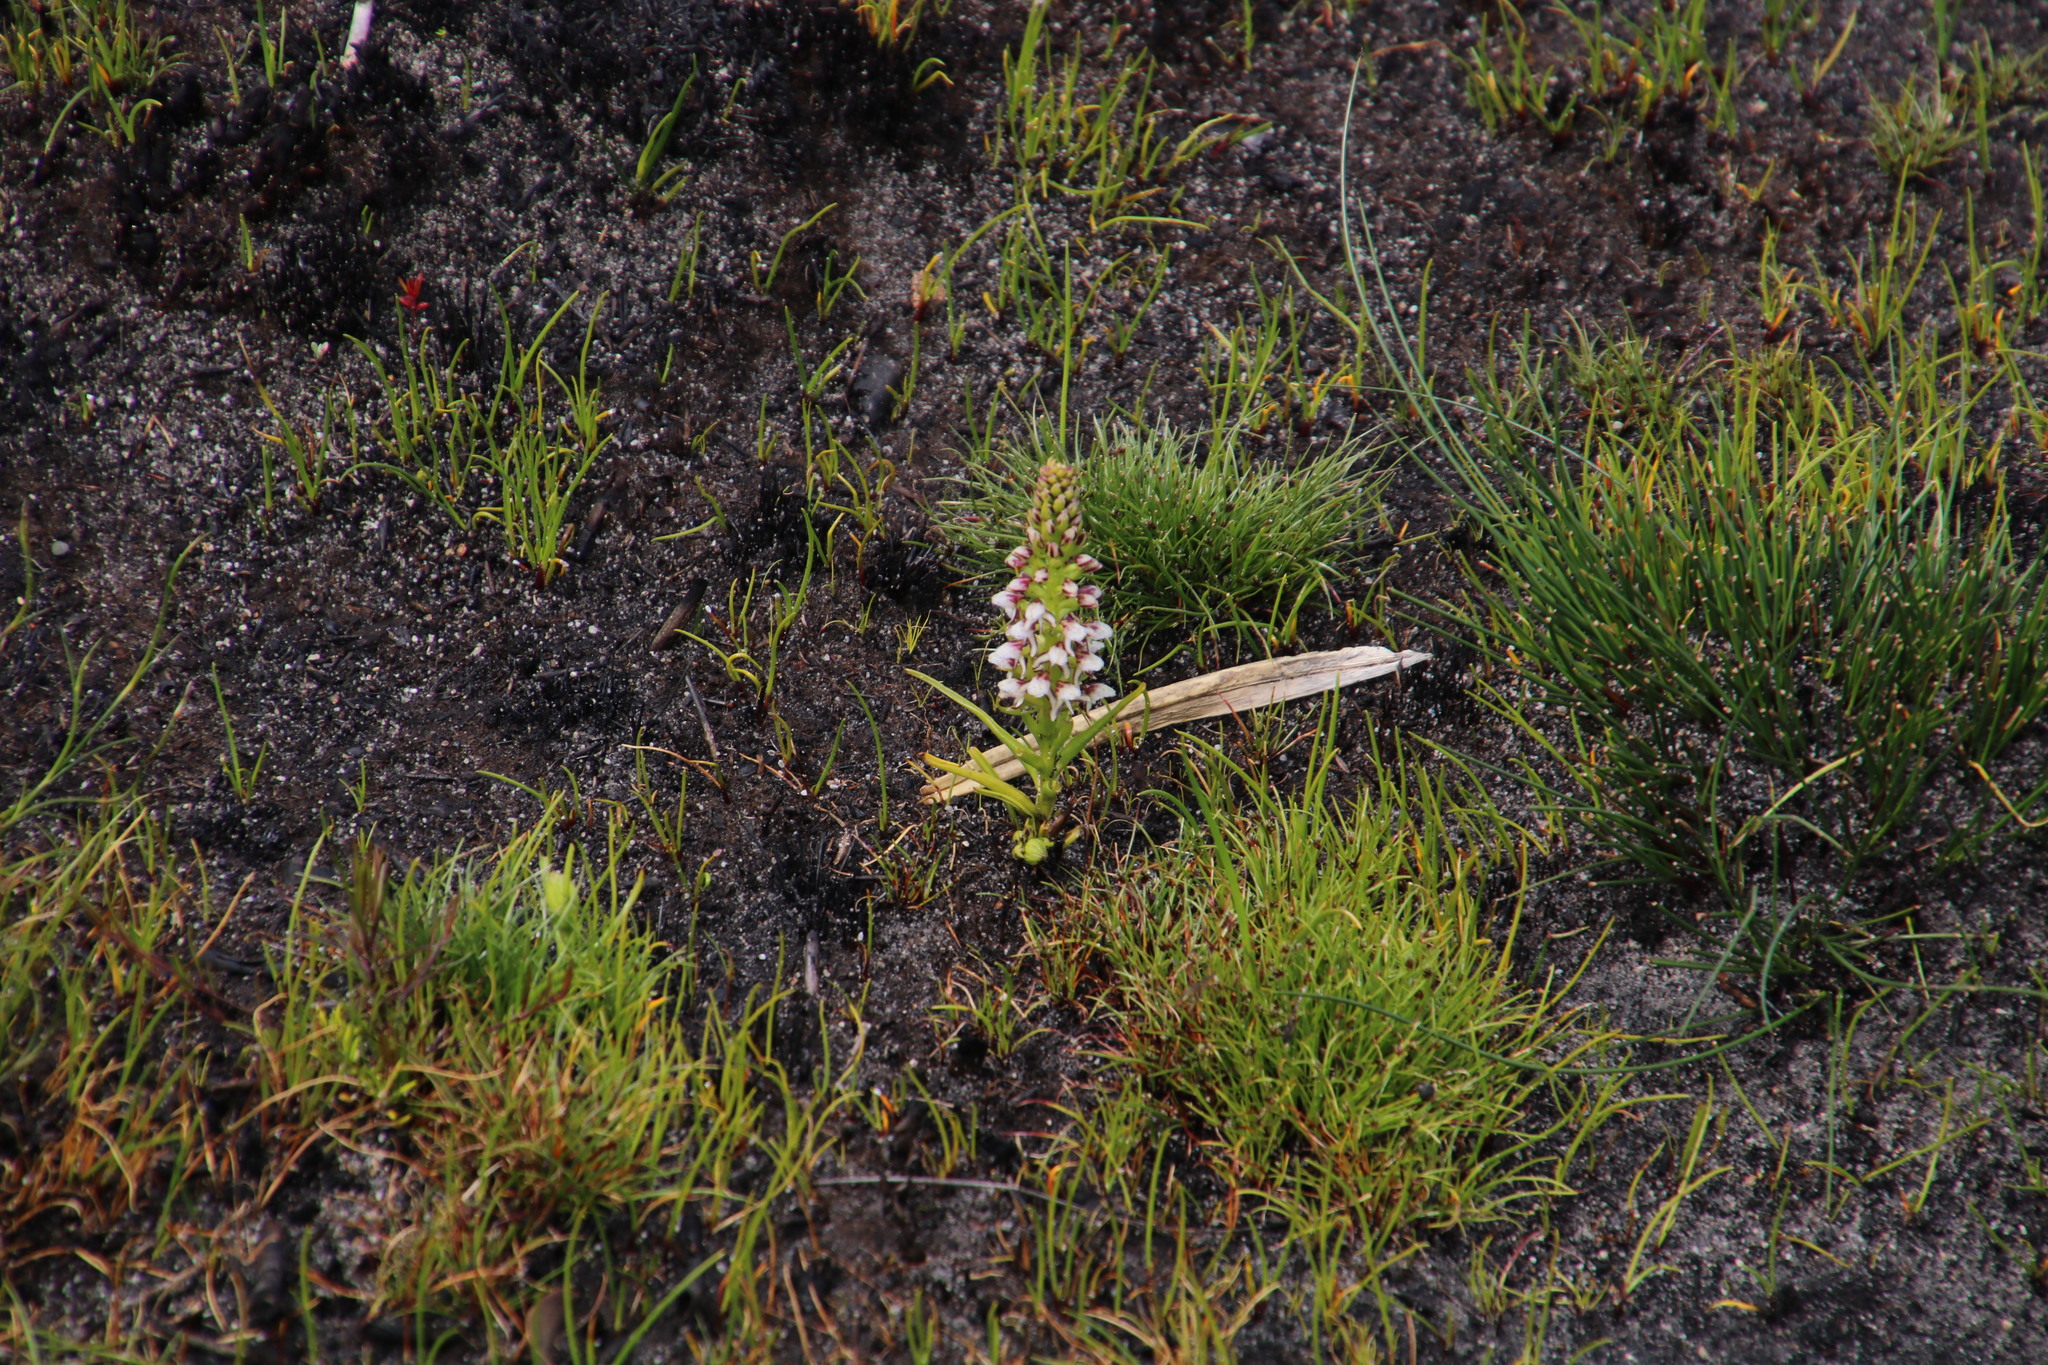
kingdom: Plantae
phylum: Tracheophyta
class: Liliopsida
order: Asparagales
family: Orchidaceae
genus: Disa
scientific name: Disa obtusa
